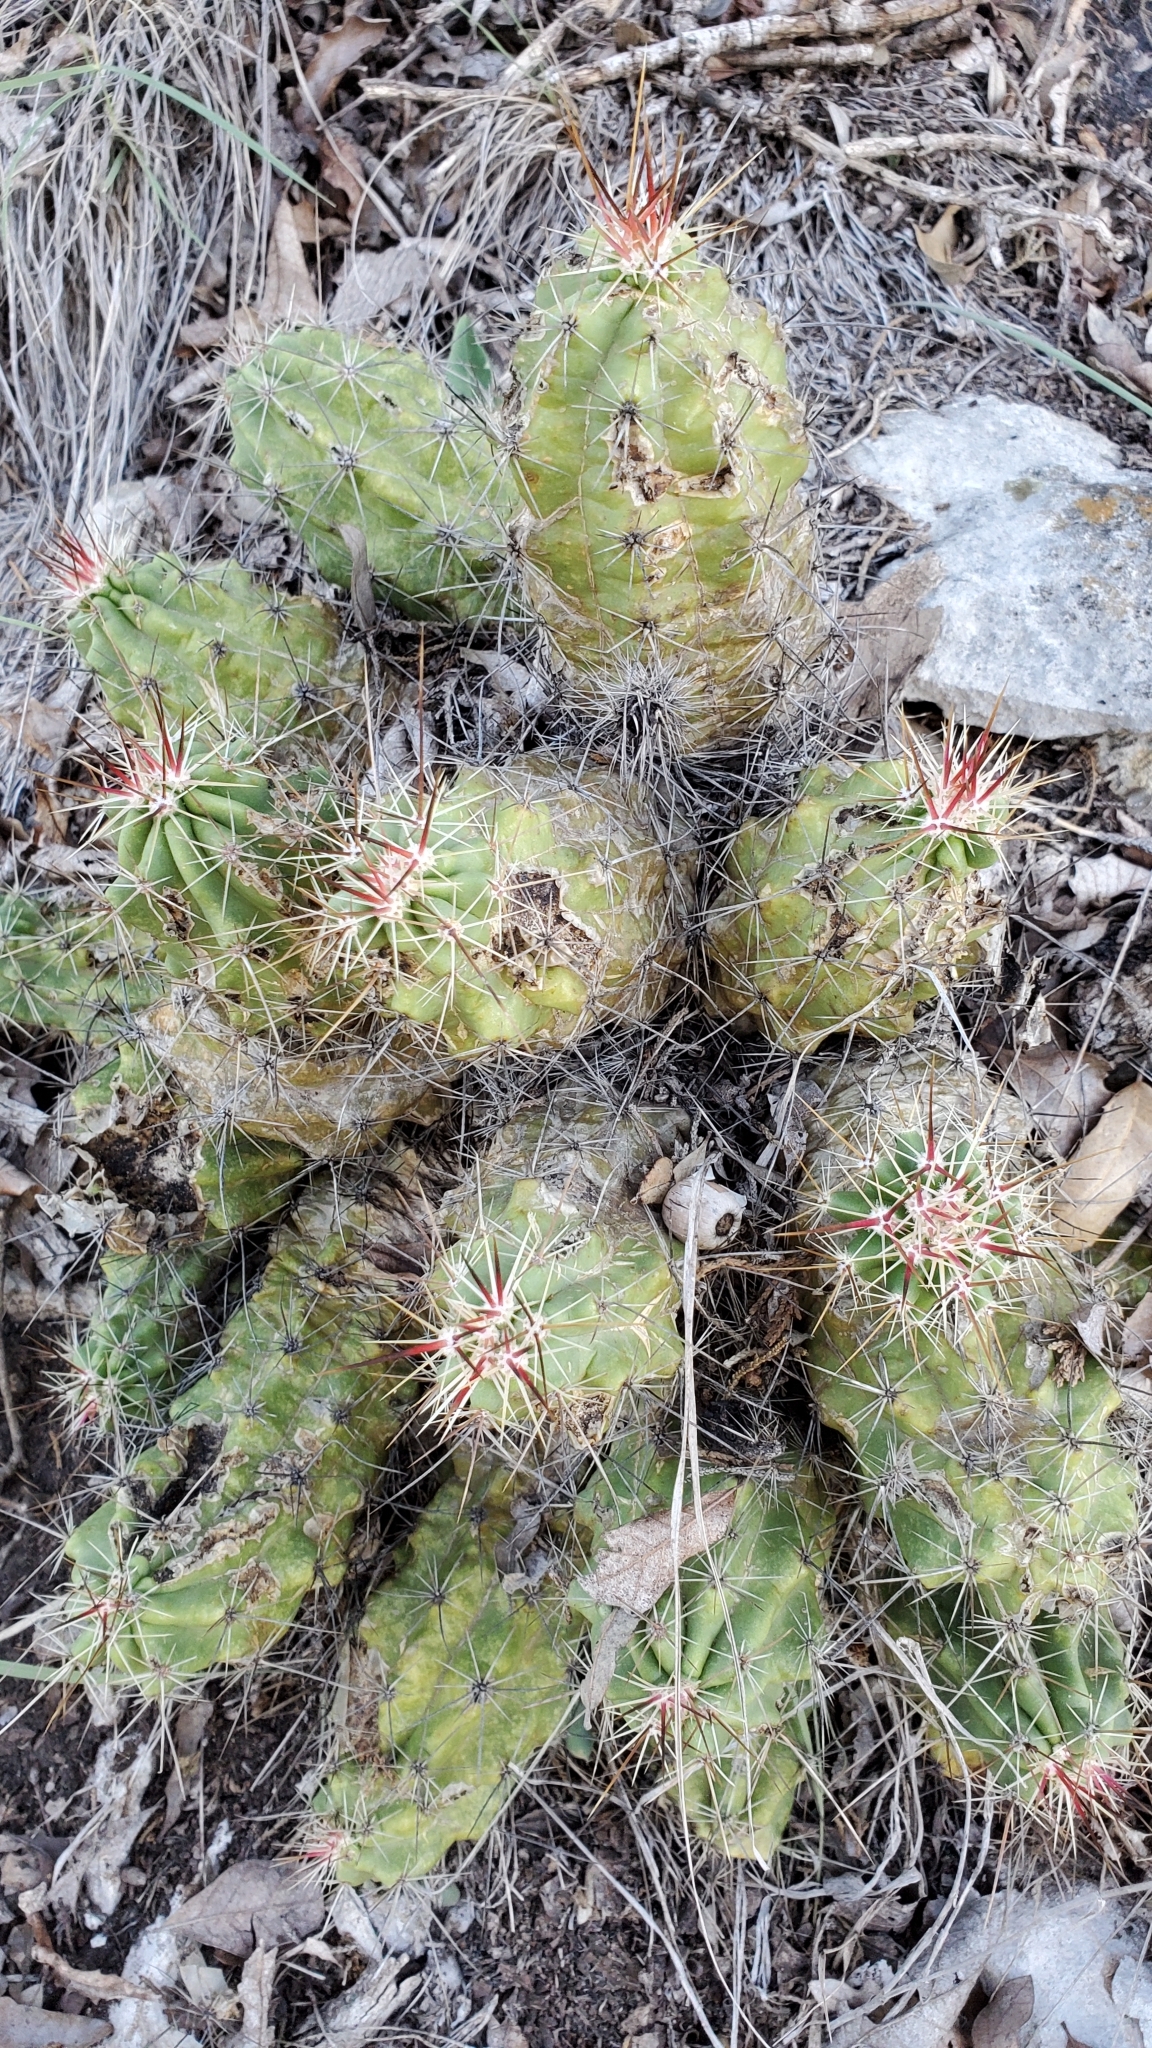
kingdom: Plantae
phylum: Tracheophyta
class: Magnoliopsida
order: Caryophyllales
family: Cactaceae
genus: Echinocereus
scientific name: Echinocereus enneacanthus
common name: Pitaya
